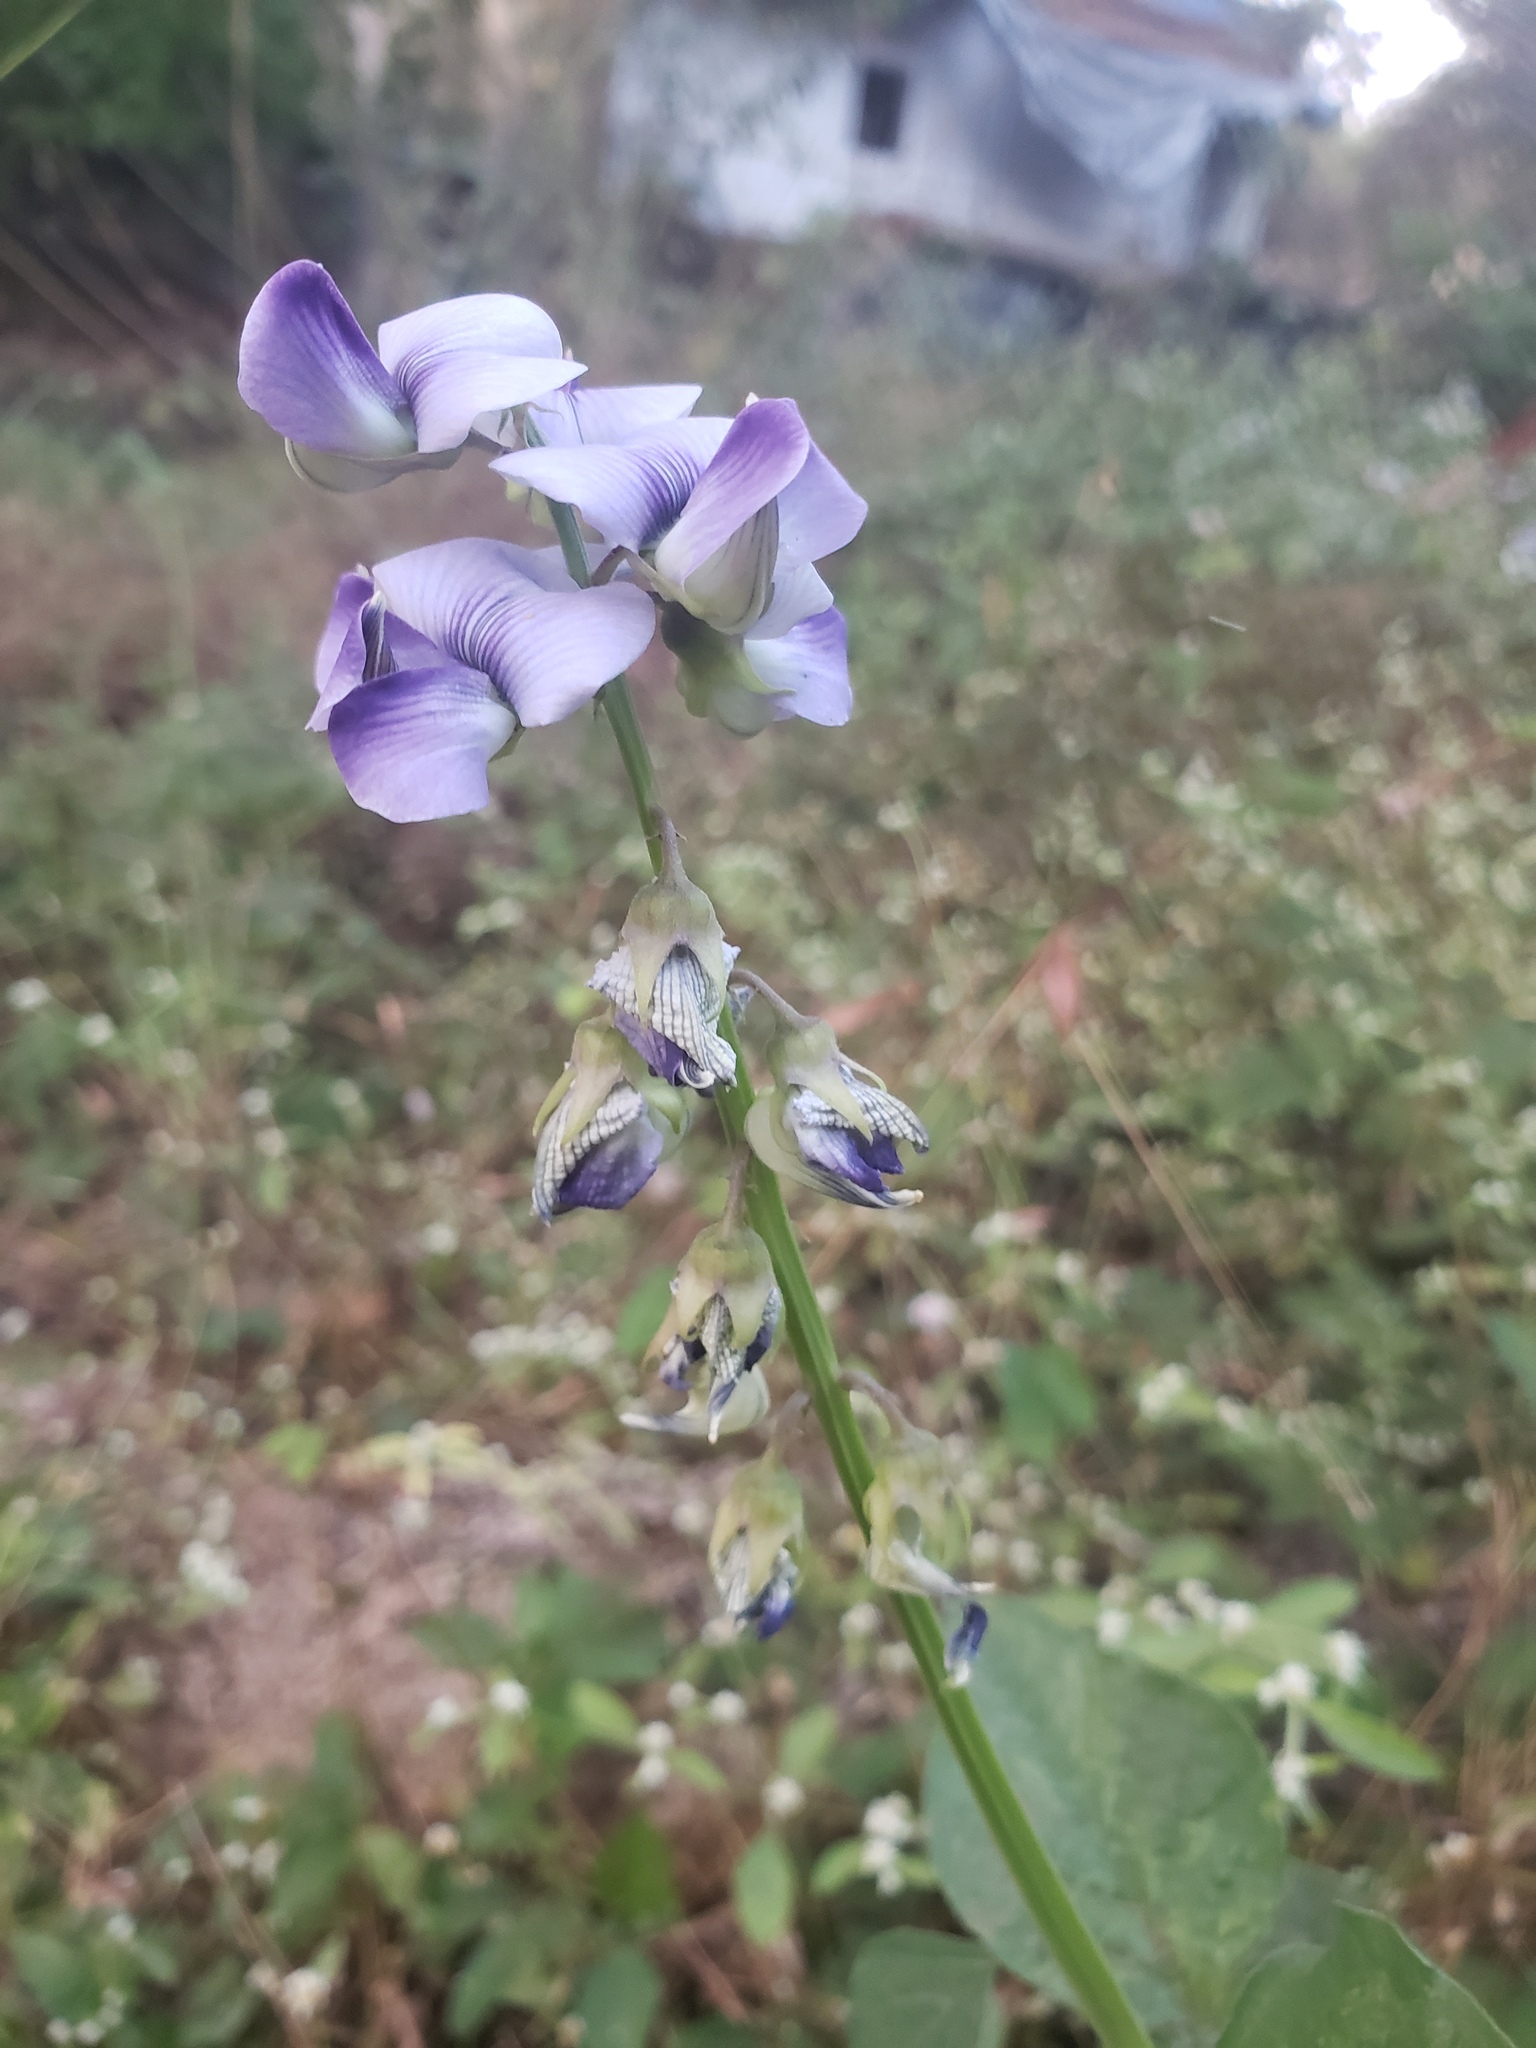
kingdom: Plantae
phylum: Tracheophyta
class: Magnoliopsida
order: Fabales
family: Fabaceae
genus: Crotalaria
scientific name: Crotalaria verrucosa
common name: Blue rattlesnake
